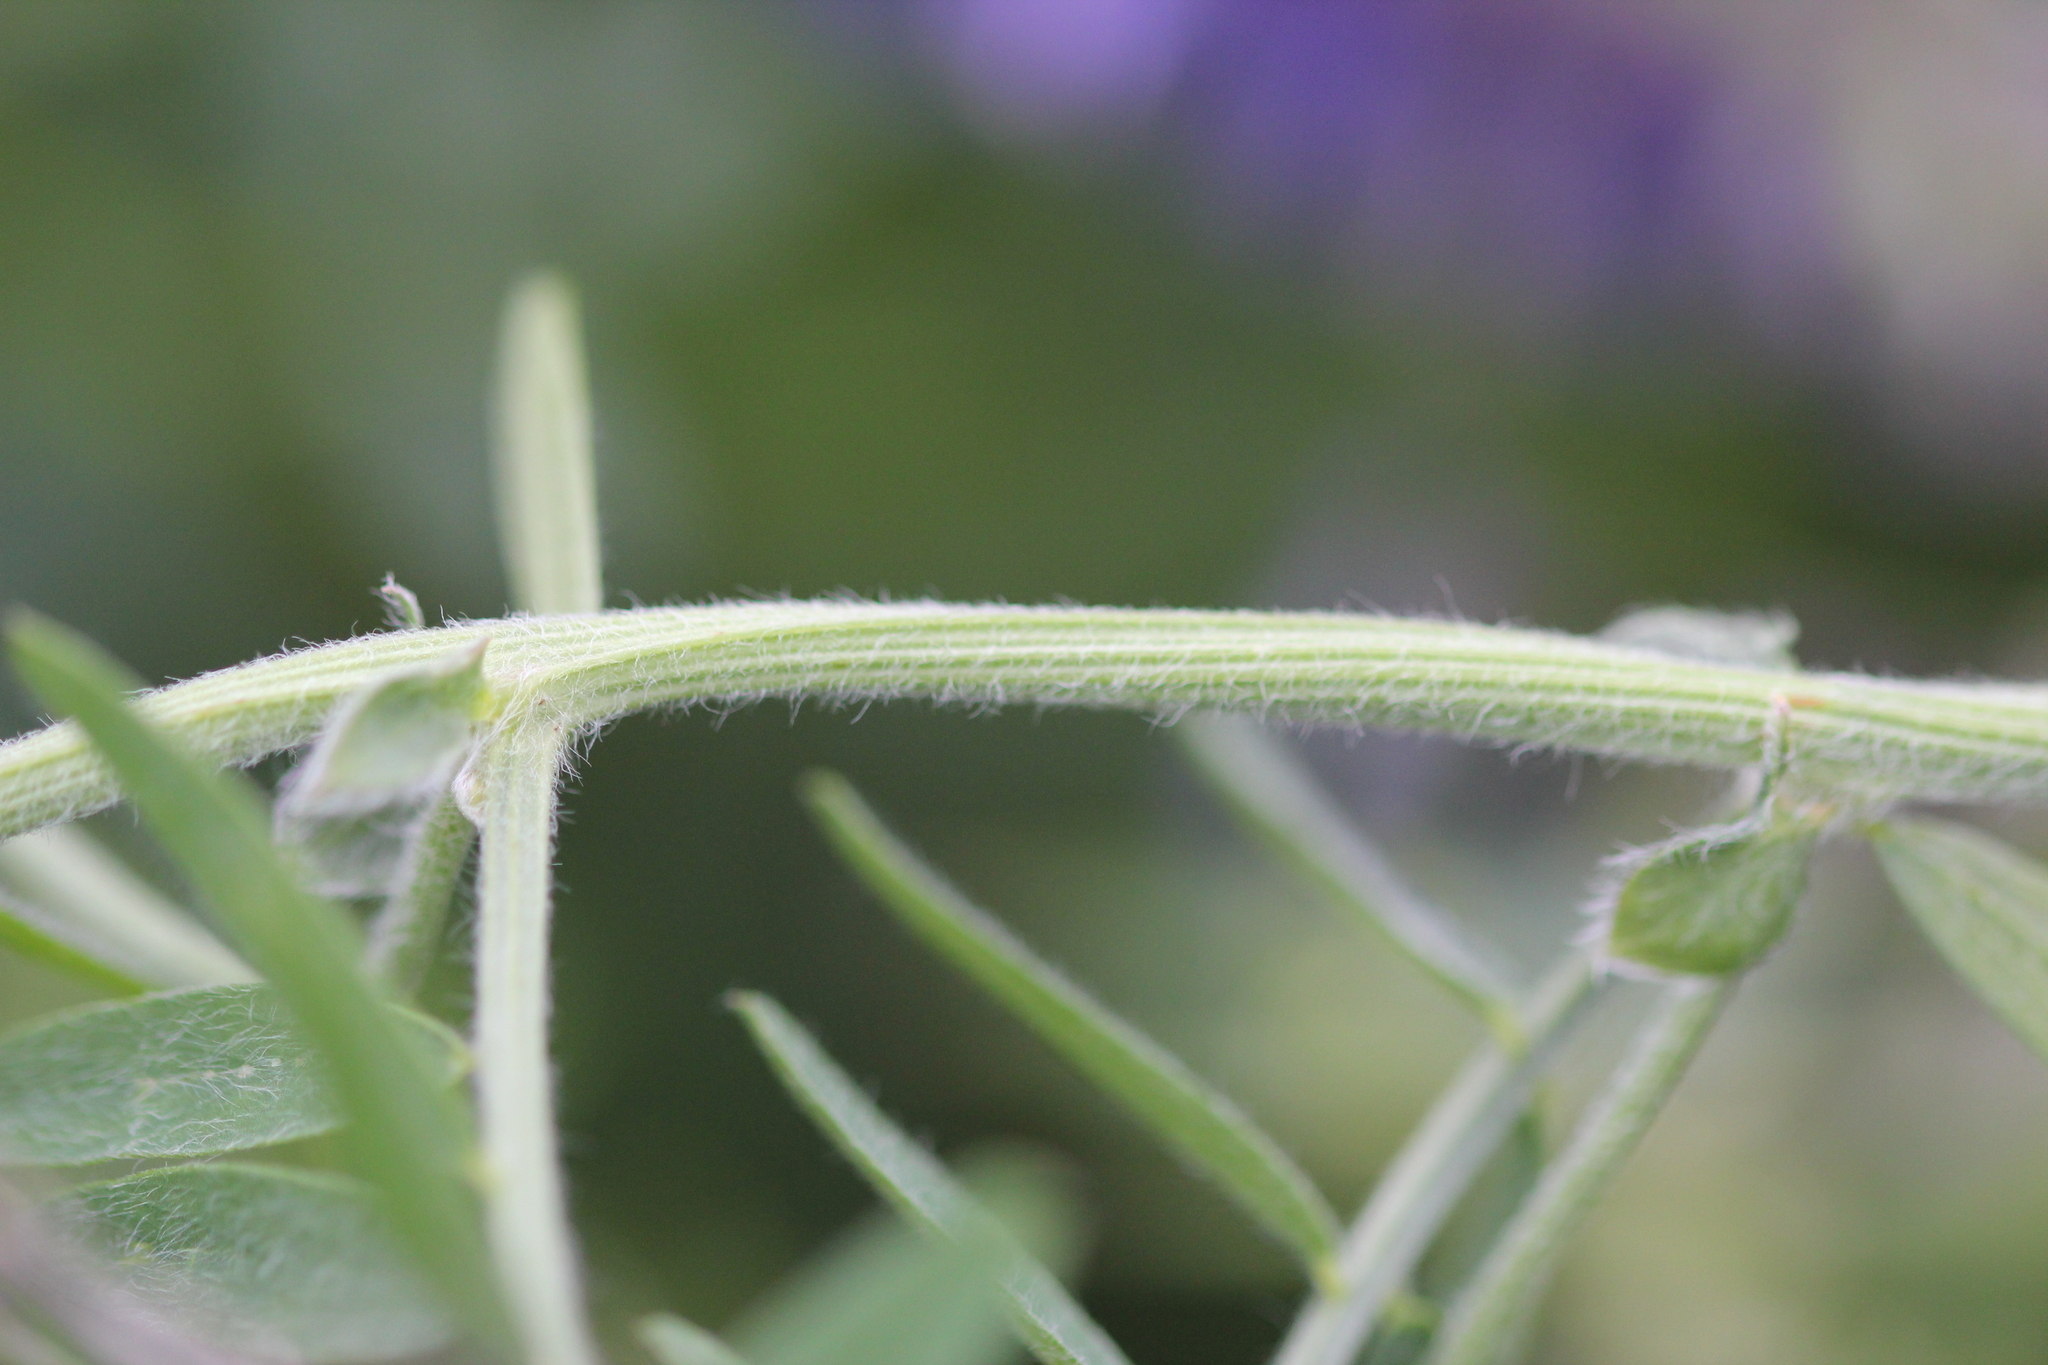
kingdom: Plantae
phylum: Tracheophyta
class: Magnoliopsida
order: Fabales
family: Fabaceae
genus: Vicia
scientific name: Vicia villosa
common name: Fodder vetch
